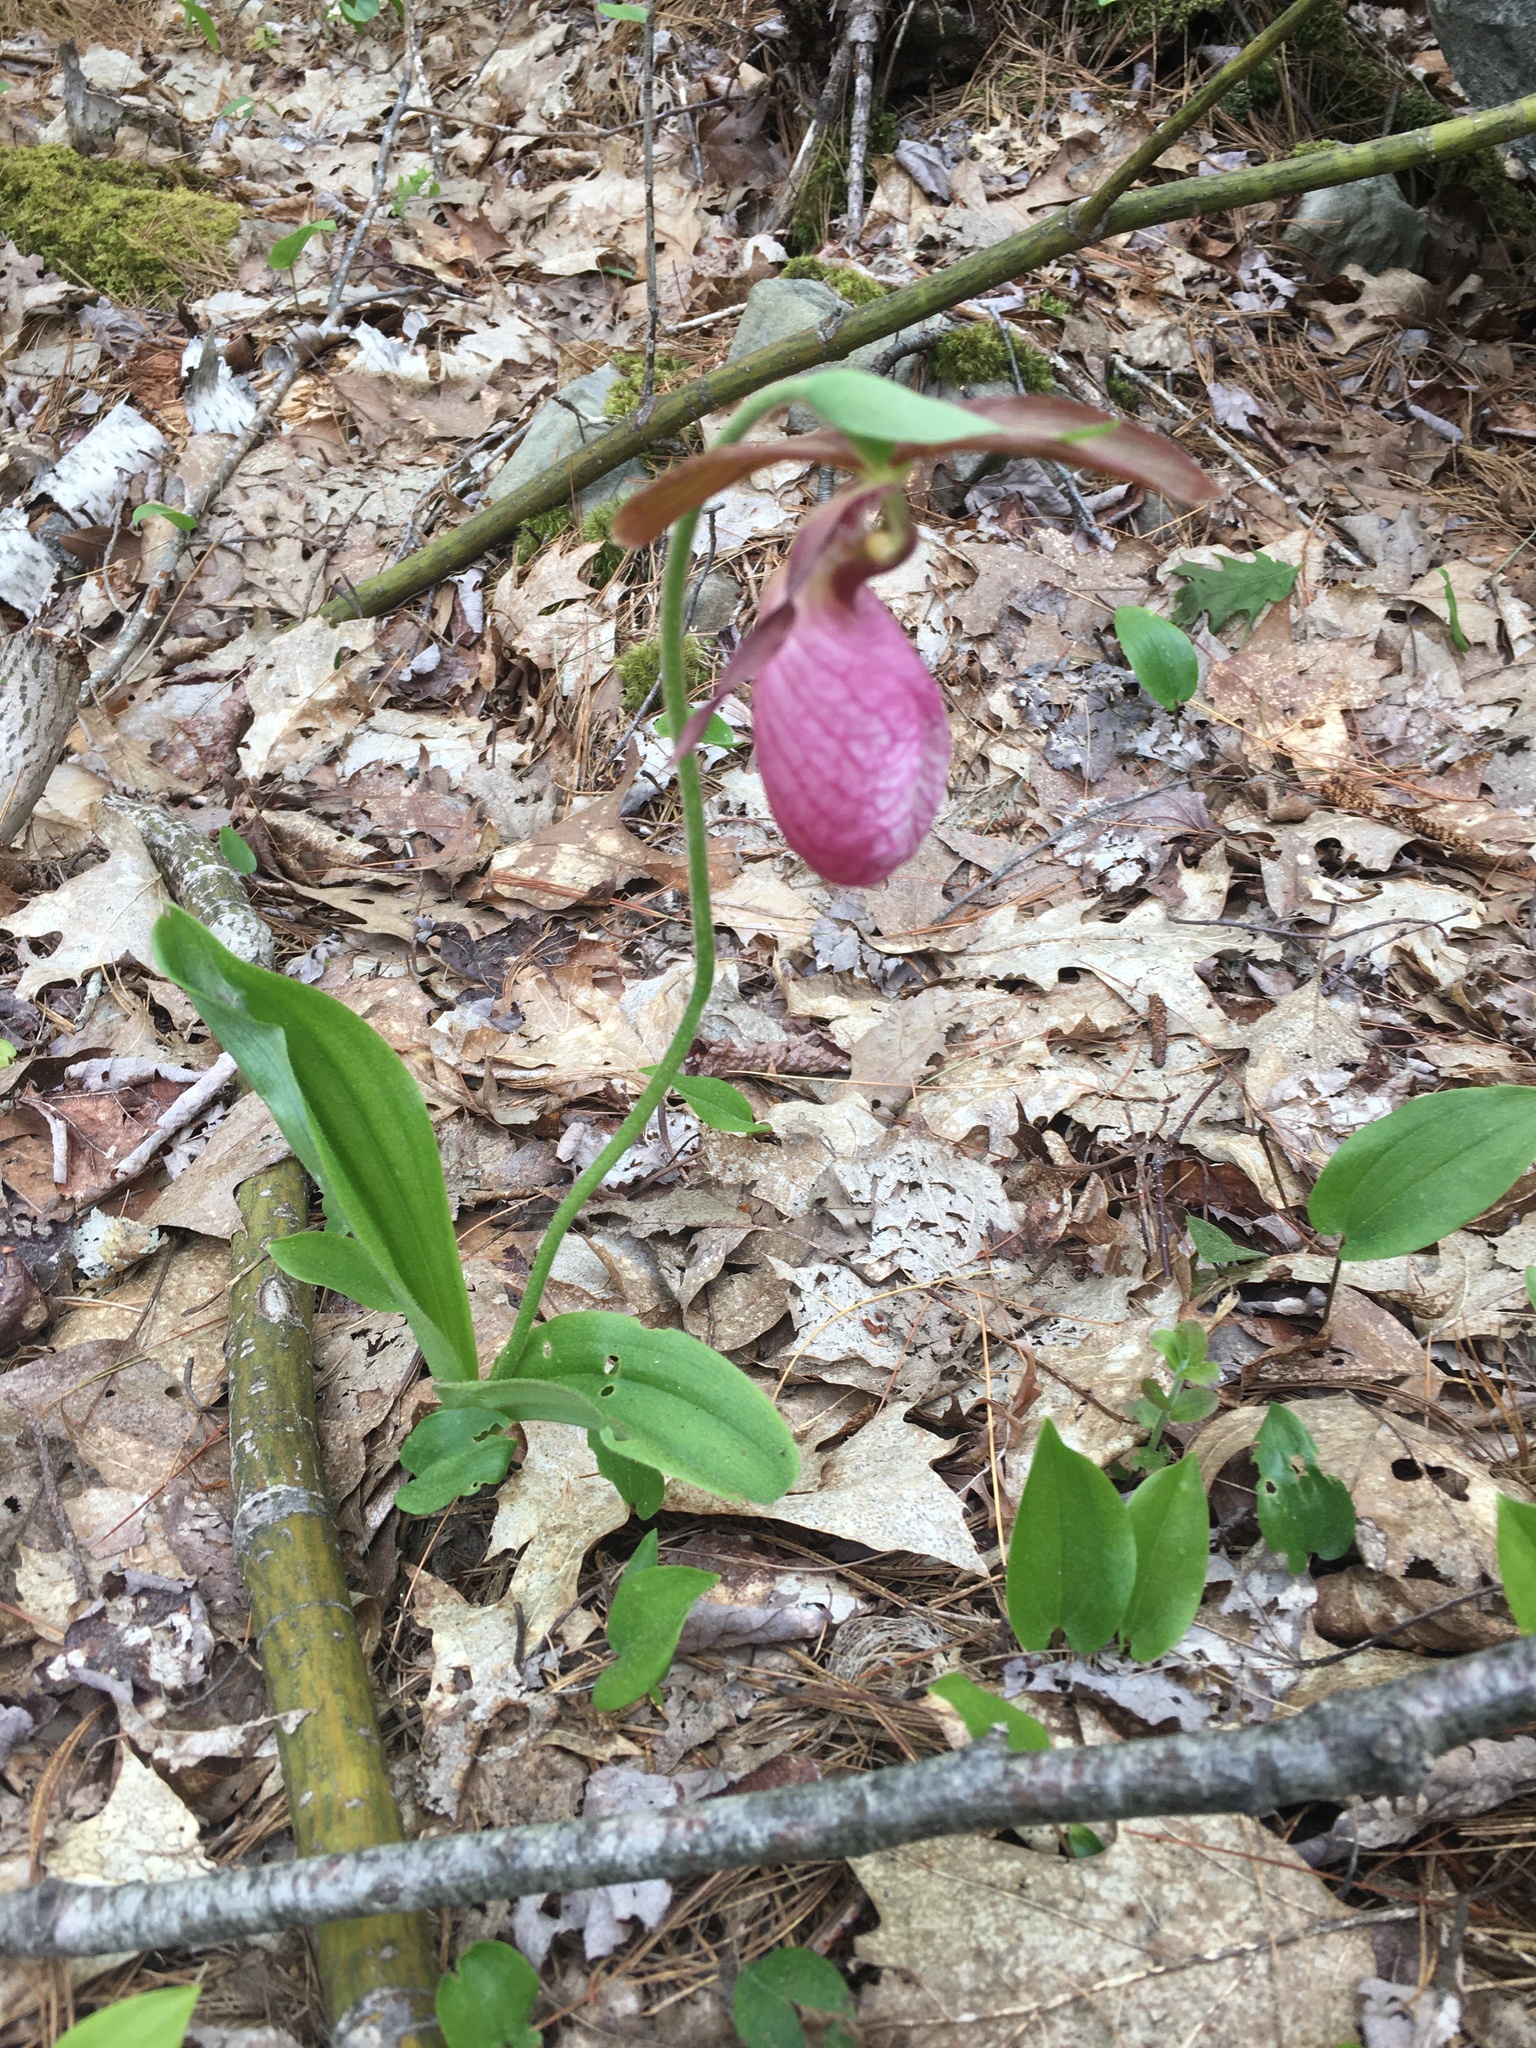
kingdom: Plantae
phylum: Tracheophyta
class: Liliopsida
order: Asparagales
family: Orchidaceae
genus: Cypripedium
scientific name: Cypripedium acaule
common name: Pink lady's-slipper
